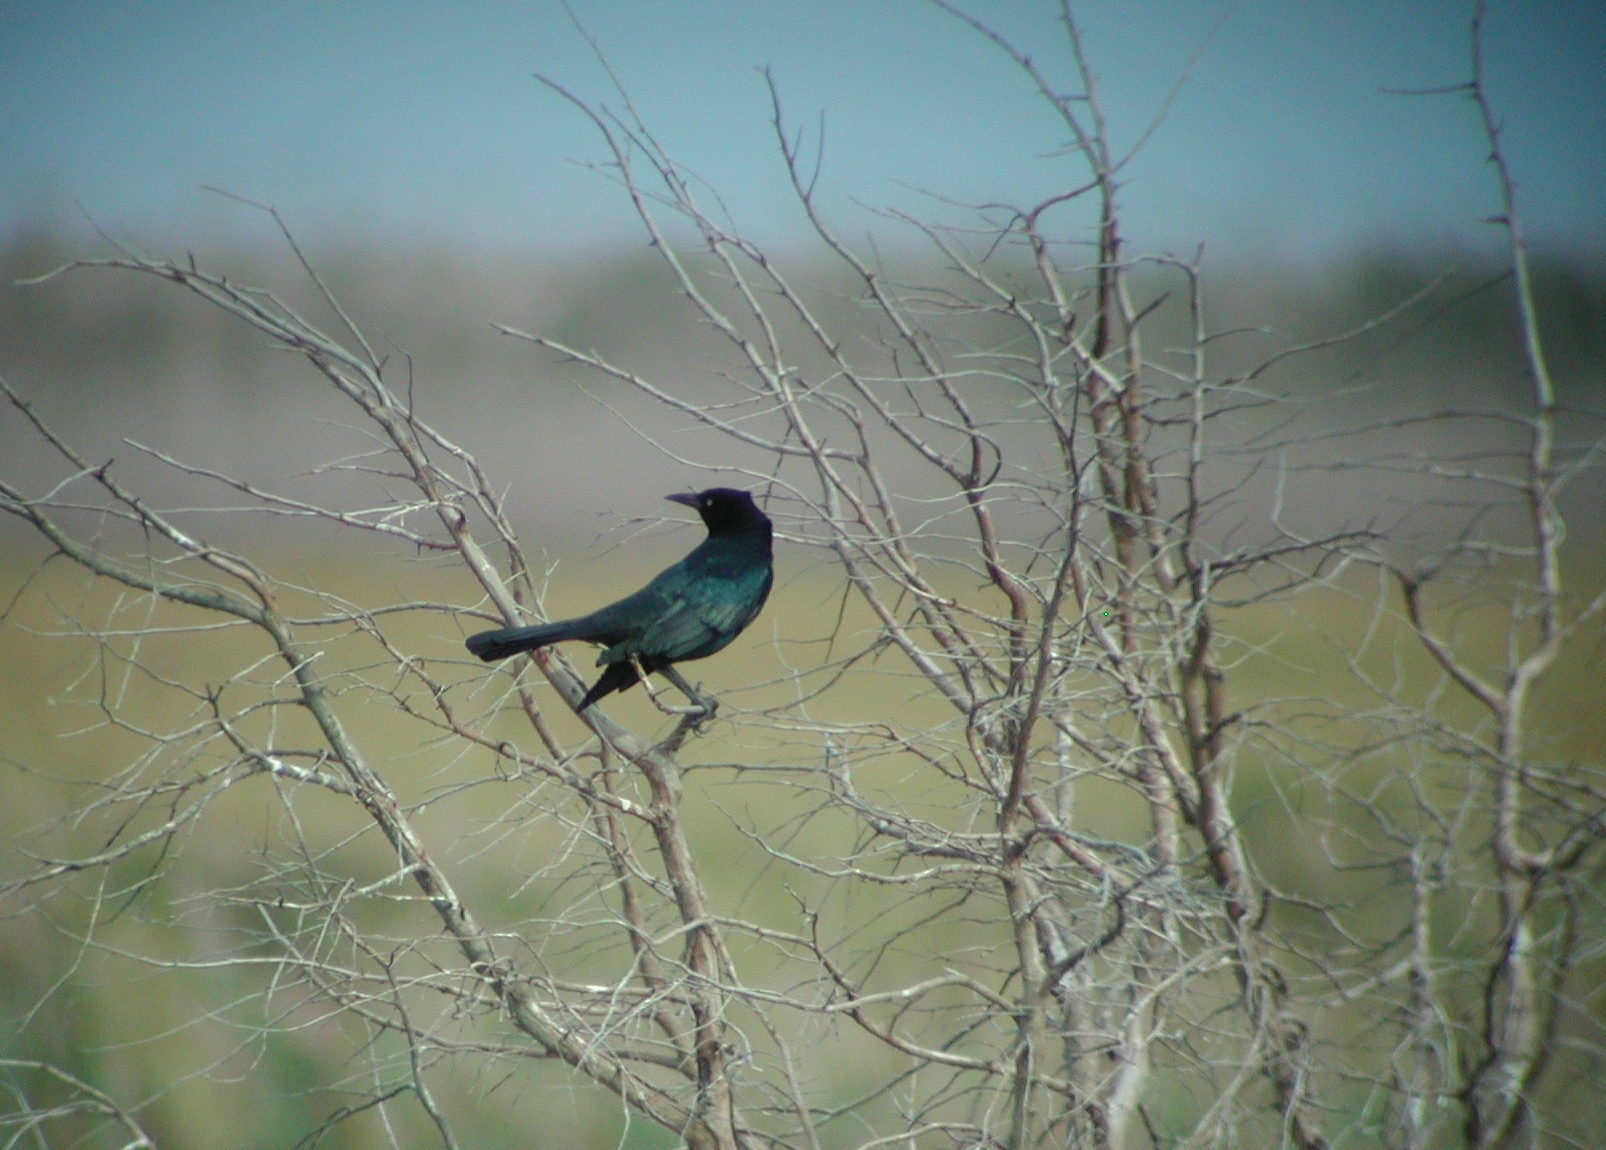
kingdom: Animalia
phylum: Chordata
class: Aves
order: Passeriformes
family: Icteridae
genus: Quiscalus
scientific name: Quiscalus quiscula
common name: Common grackle
